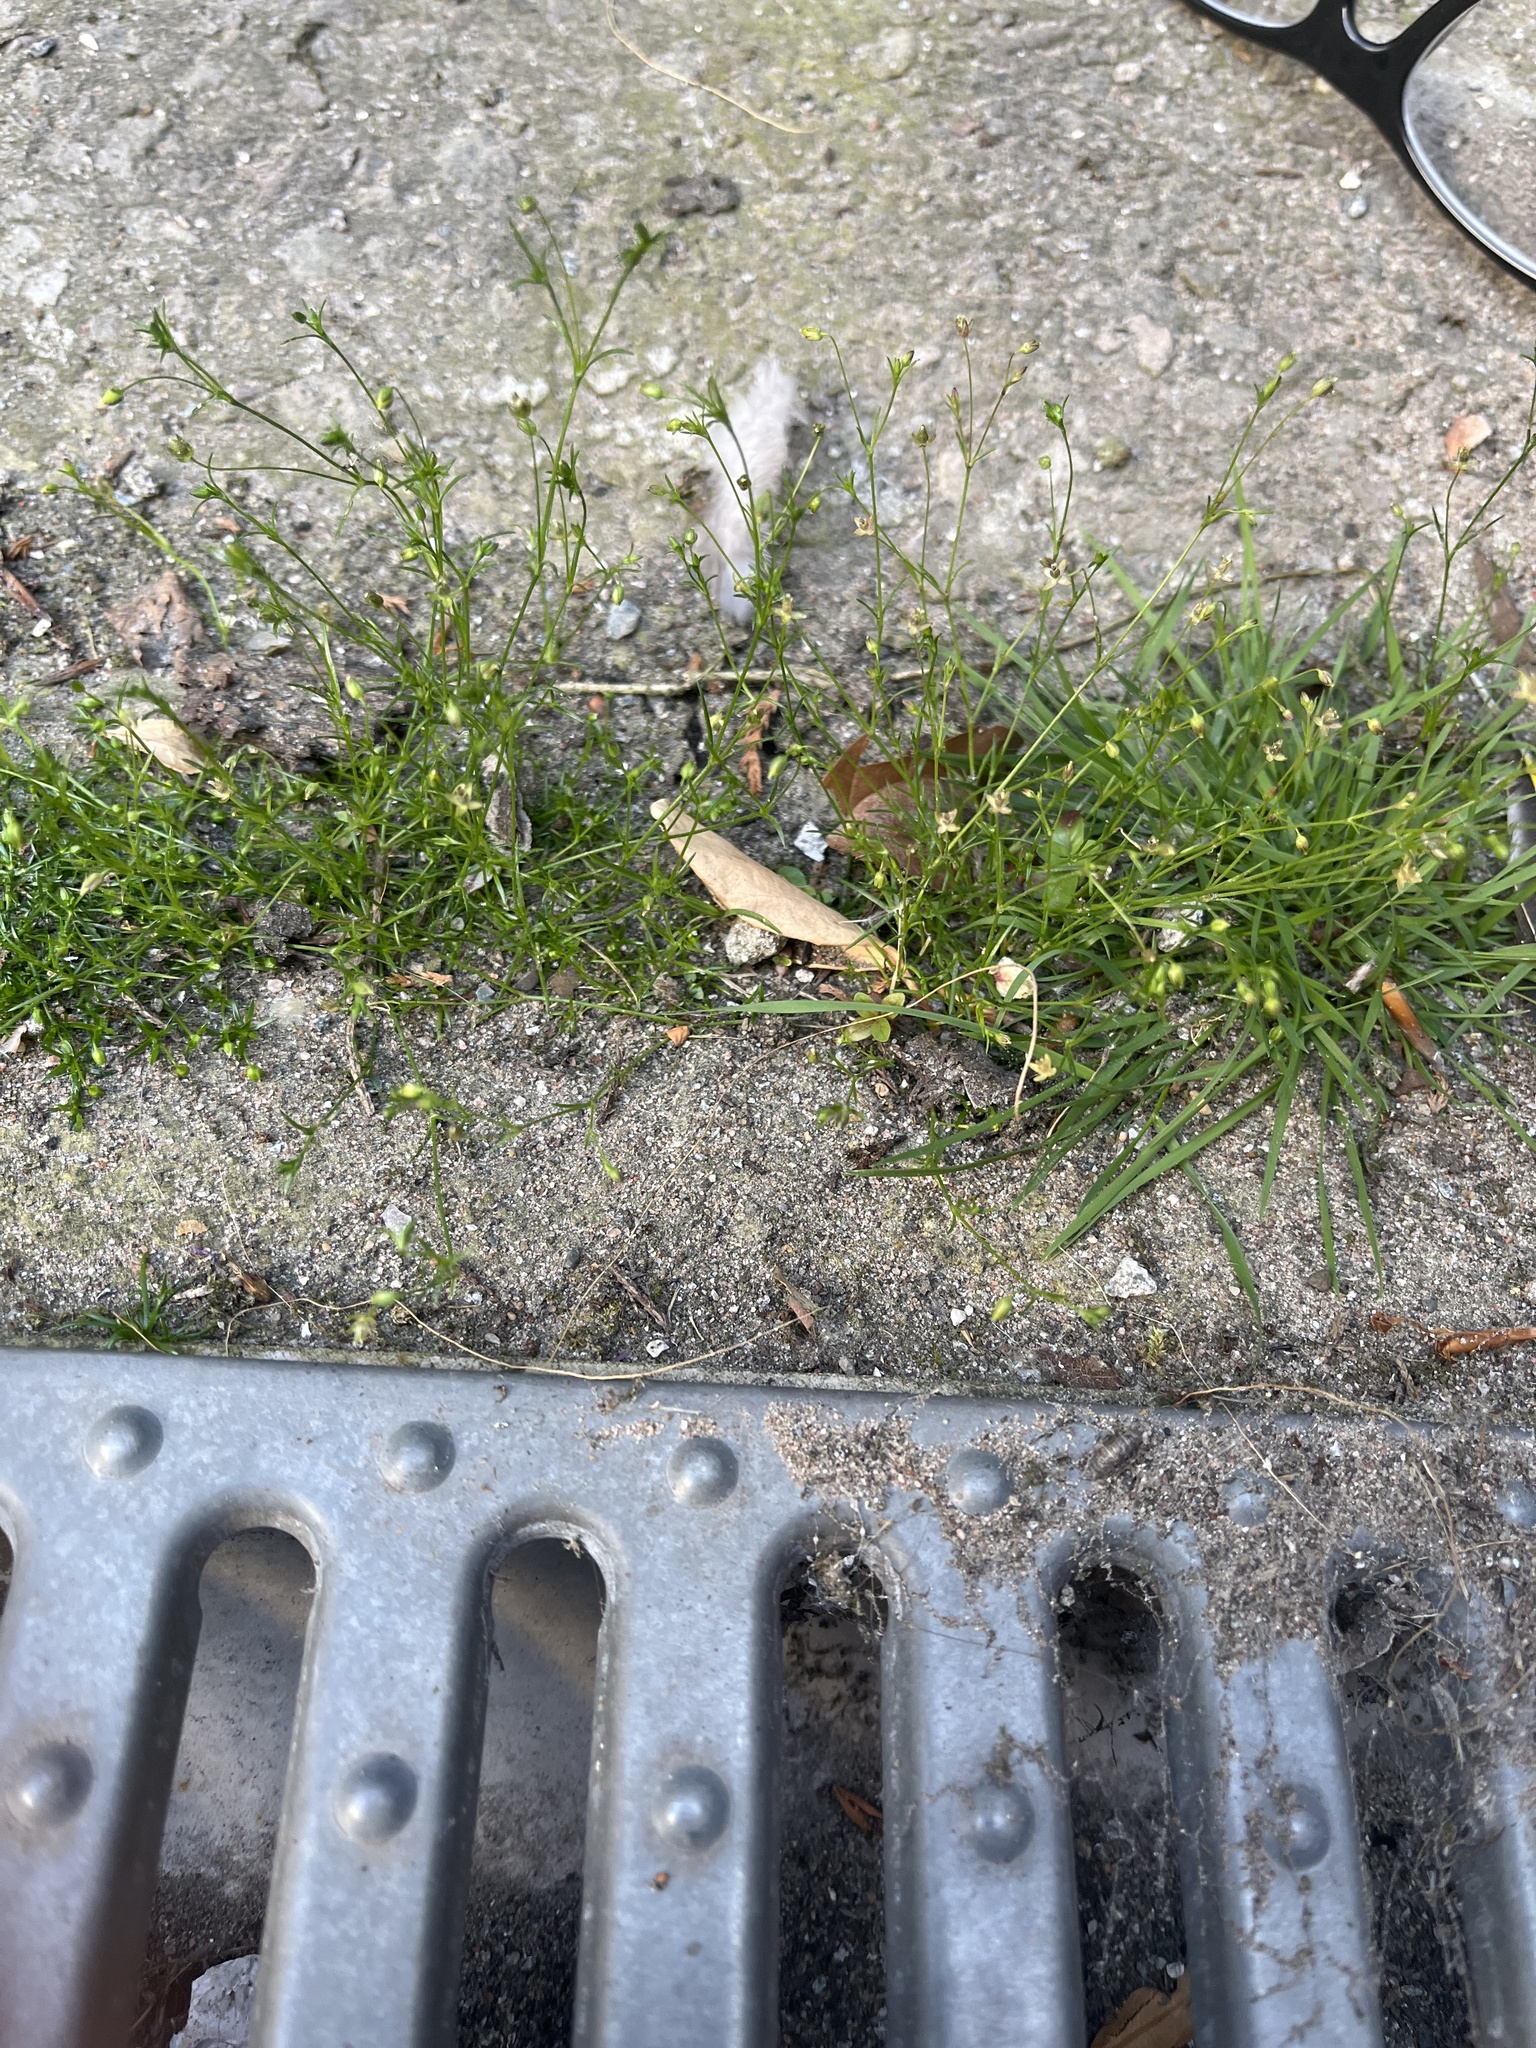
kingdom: Plantae
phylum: Tracheophyta
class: Magnoliopsida
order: Caryophyllales
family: Caryophyllaceae
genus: Sagina
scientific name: Sagina apetala
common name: Annual pearlwort
